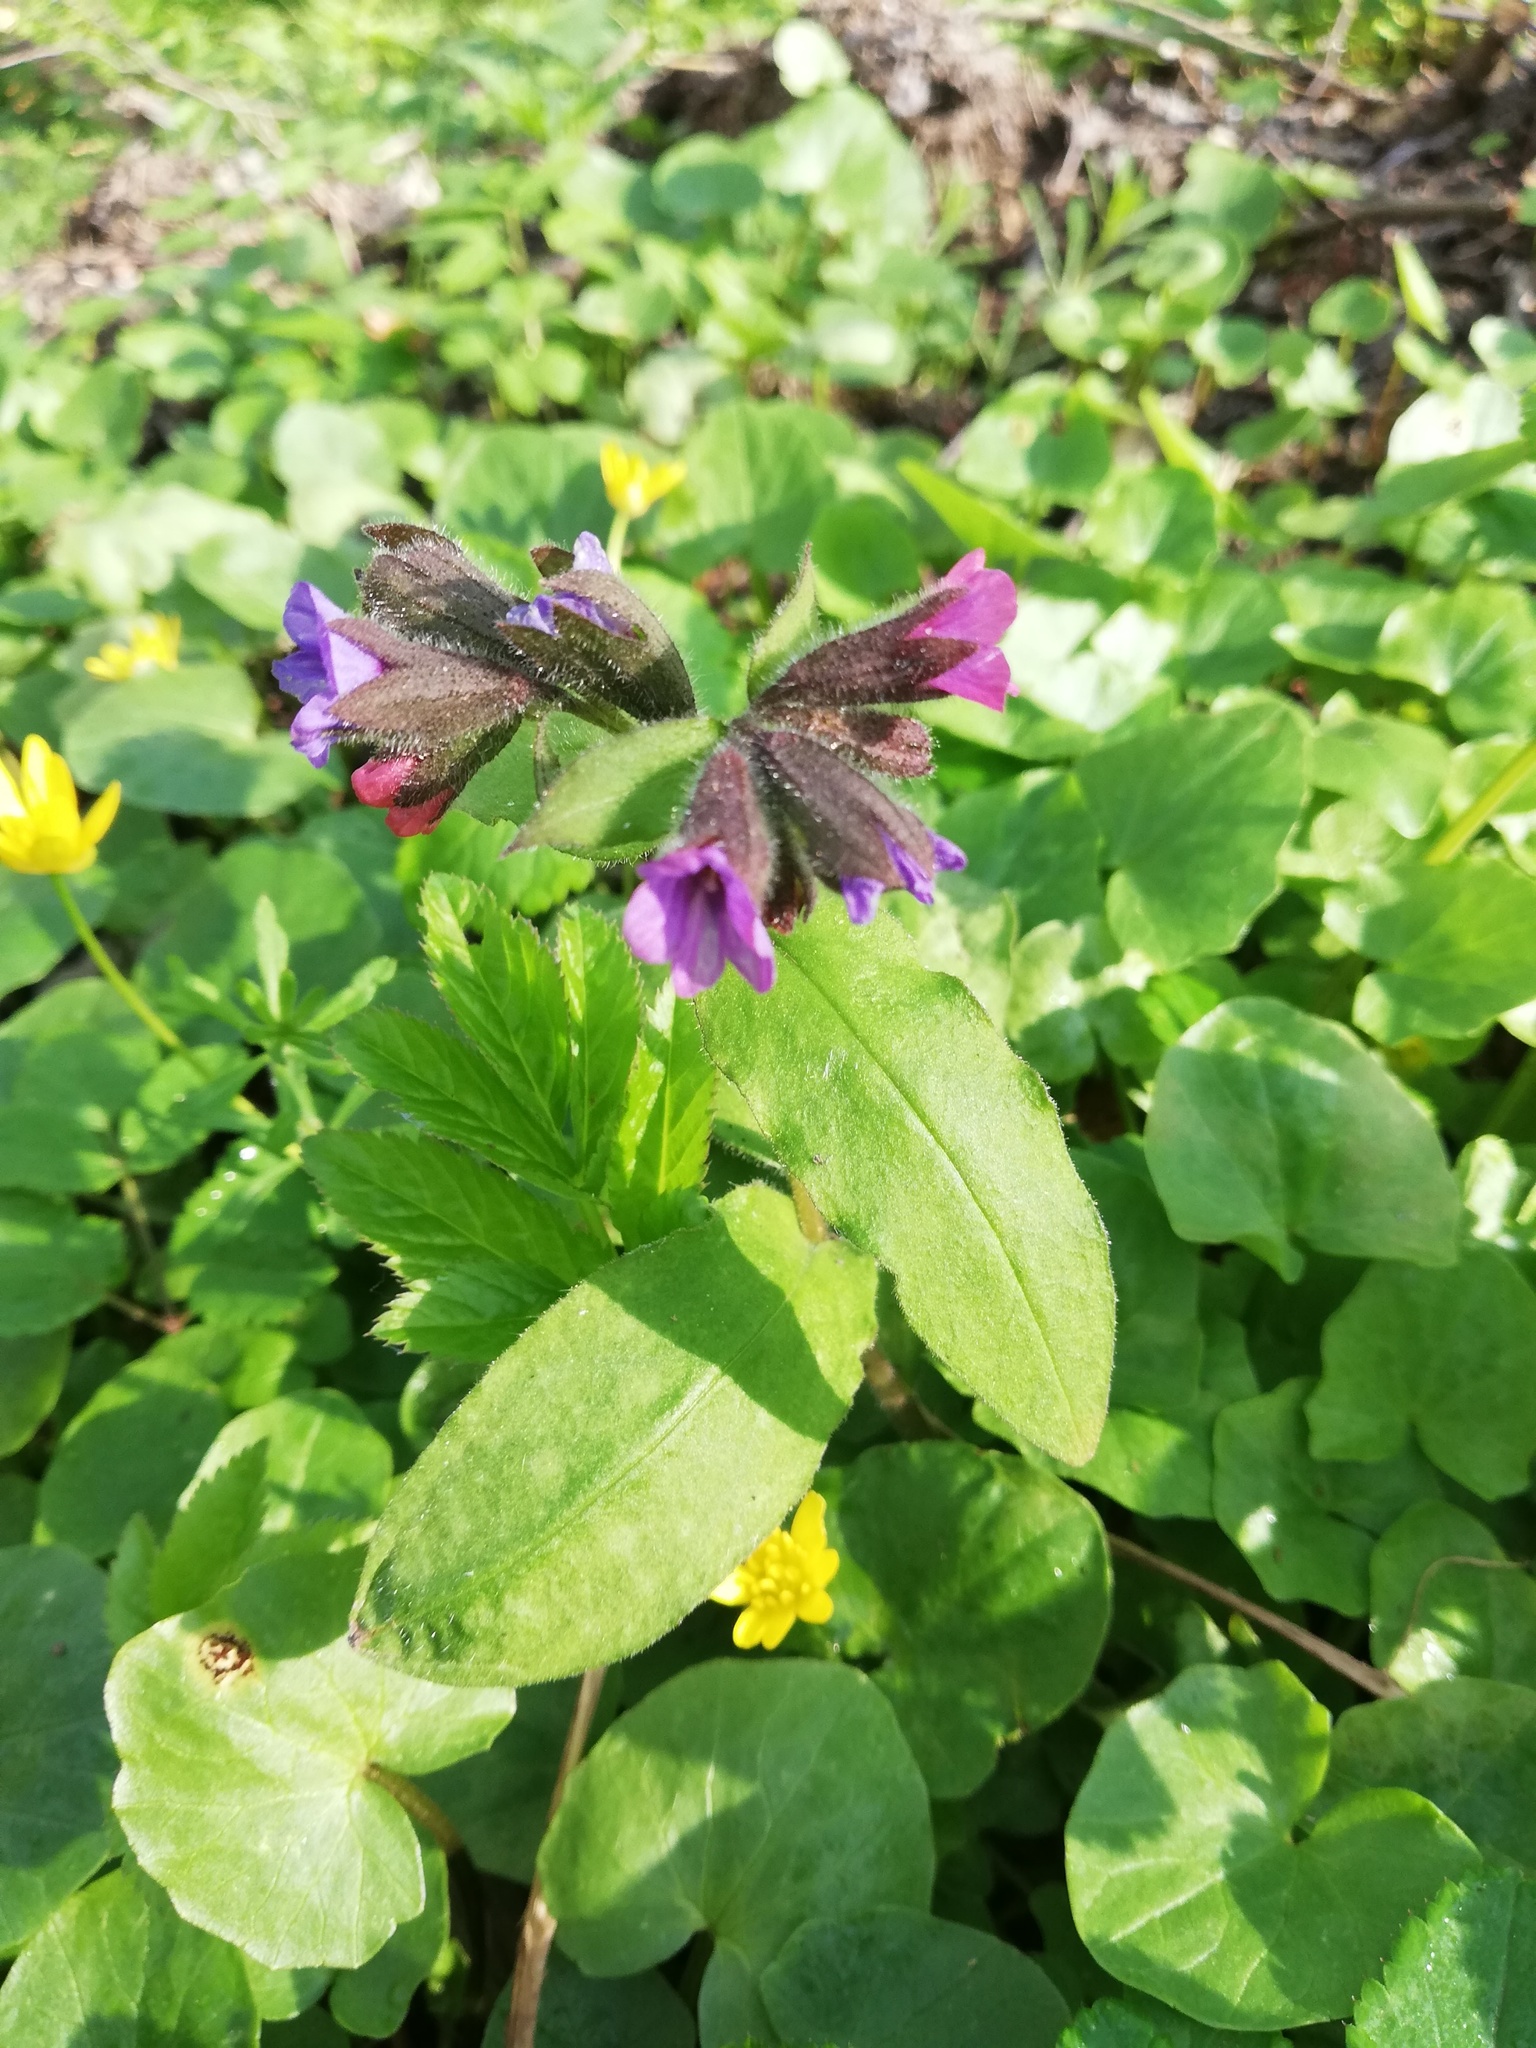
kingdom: Plantae
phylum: Tracheophyta
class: Magnoliopsida
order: Boraginales
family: Boraginaceae
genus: Pulmonaria
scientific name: Pulmonaria officinalis
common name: Lungwort
